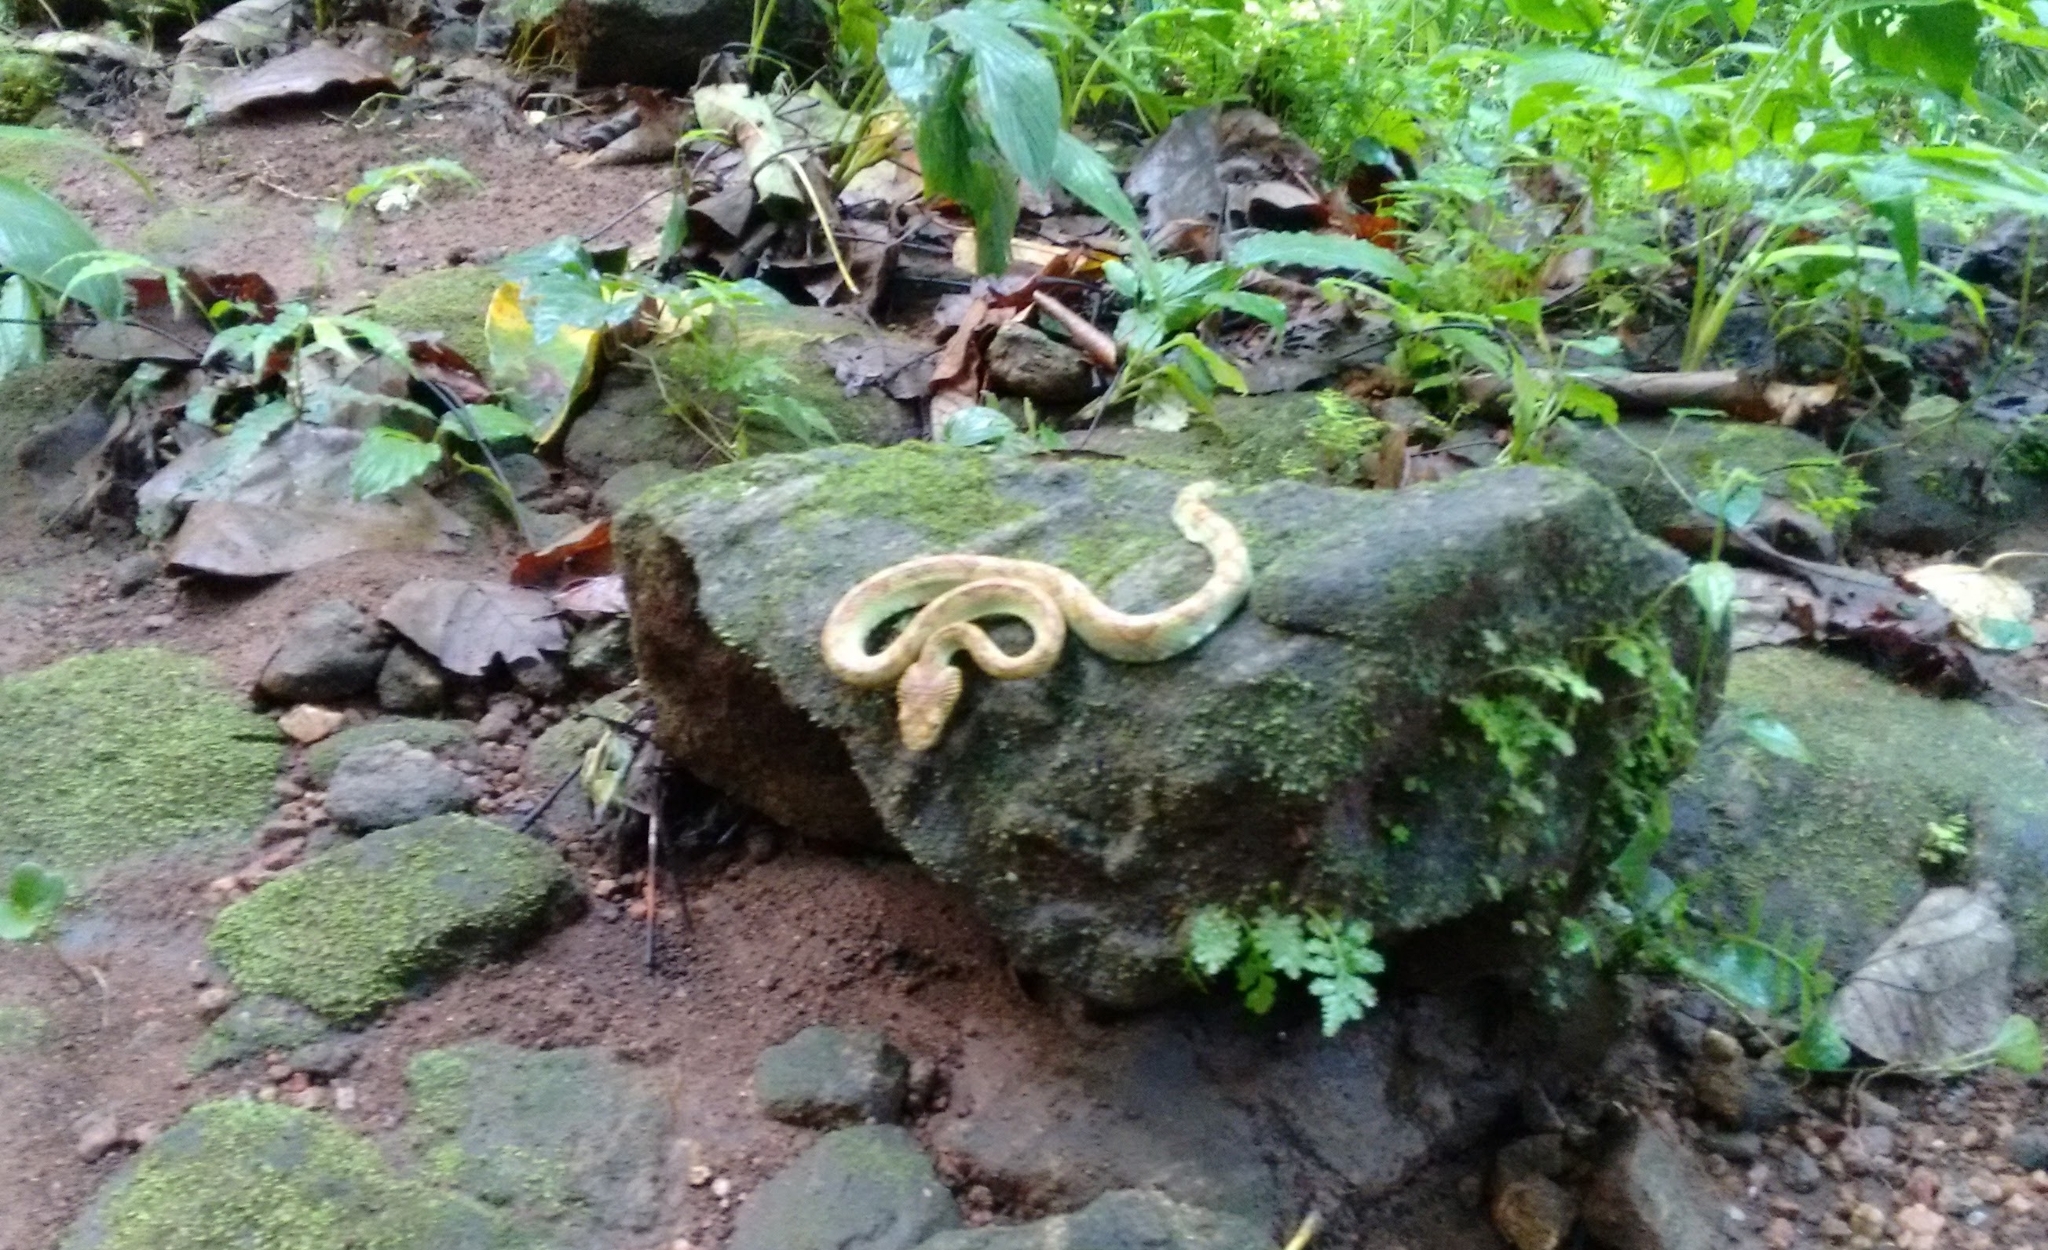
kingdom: Animalia
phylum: Chordata
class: Squamata
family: Viperidae
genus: Craspedocephalus
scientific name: Craspedocephalus anamallensis
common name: Malabarian pit viper
